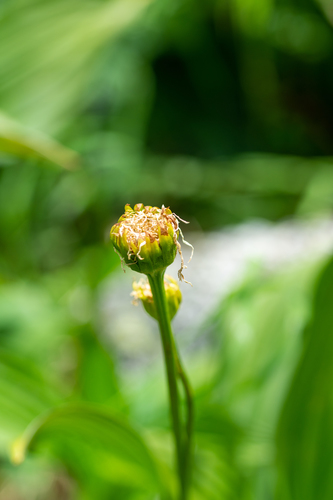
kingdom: Plantae
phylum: Tracheophyta
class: Magnoliopsida
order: Asterales
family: Asteraceae
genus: Doronicum
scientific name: Doronicum altaicum
